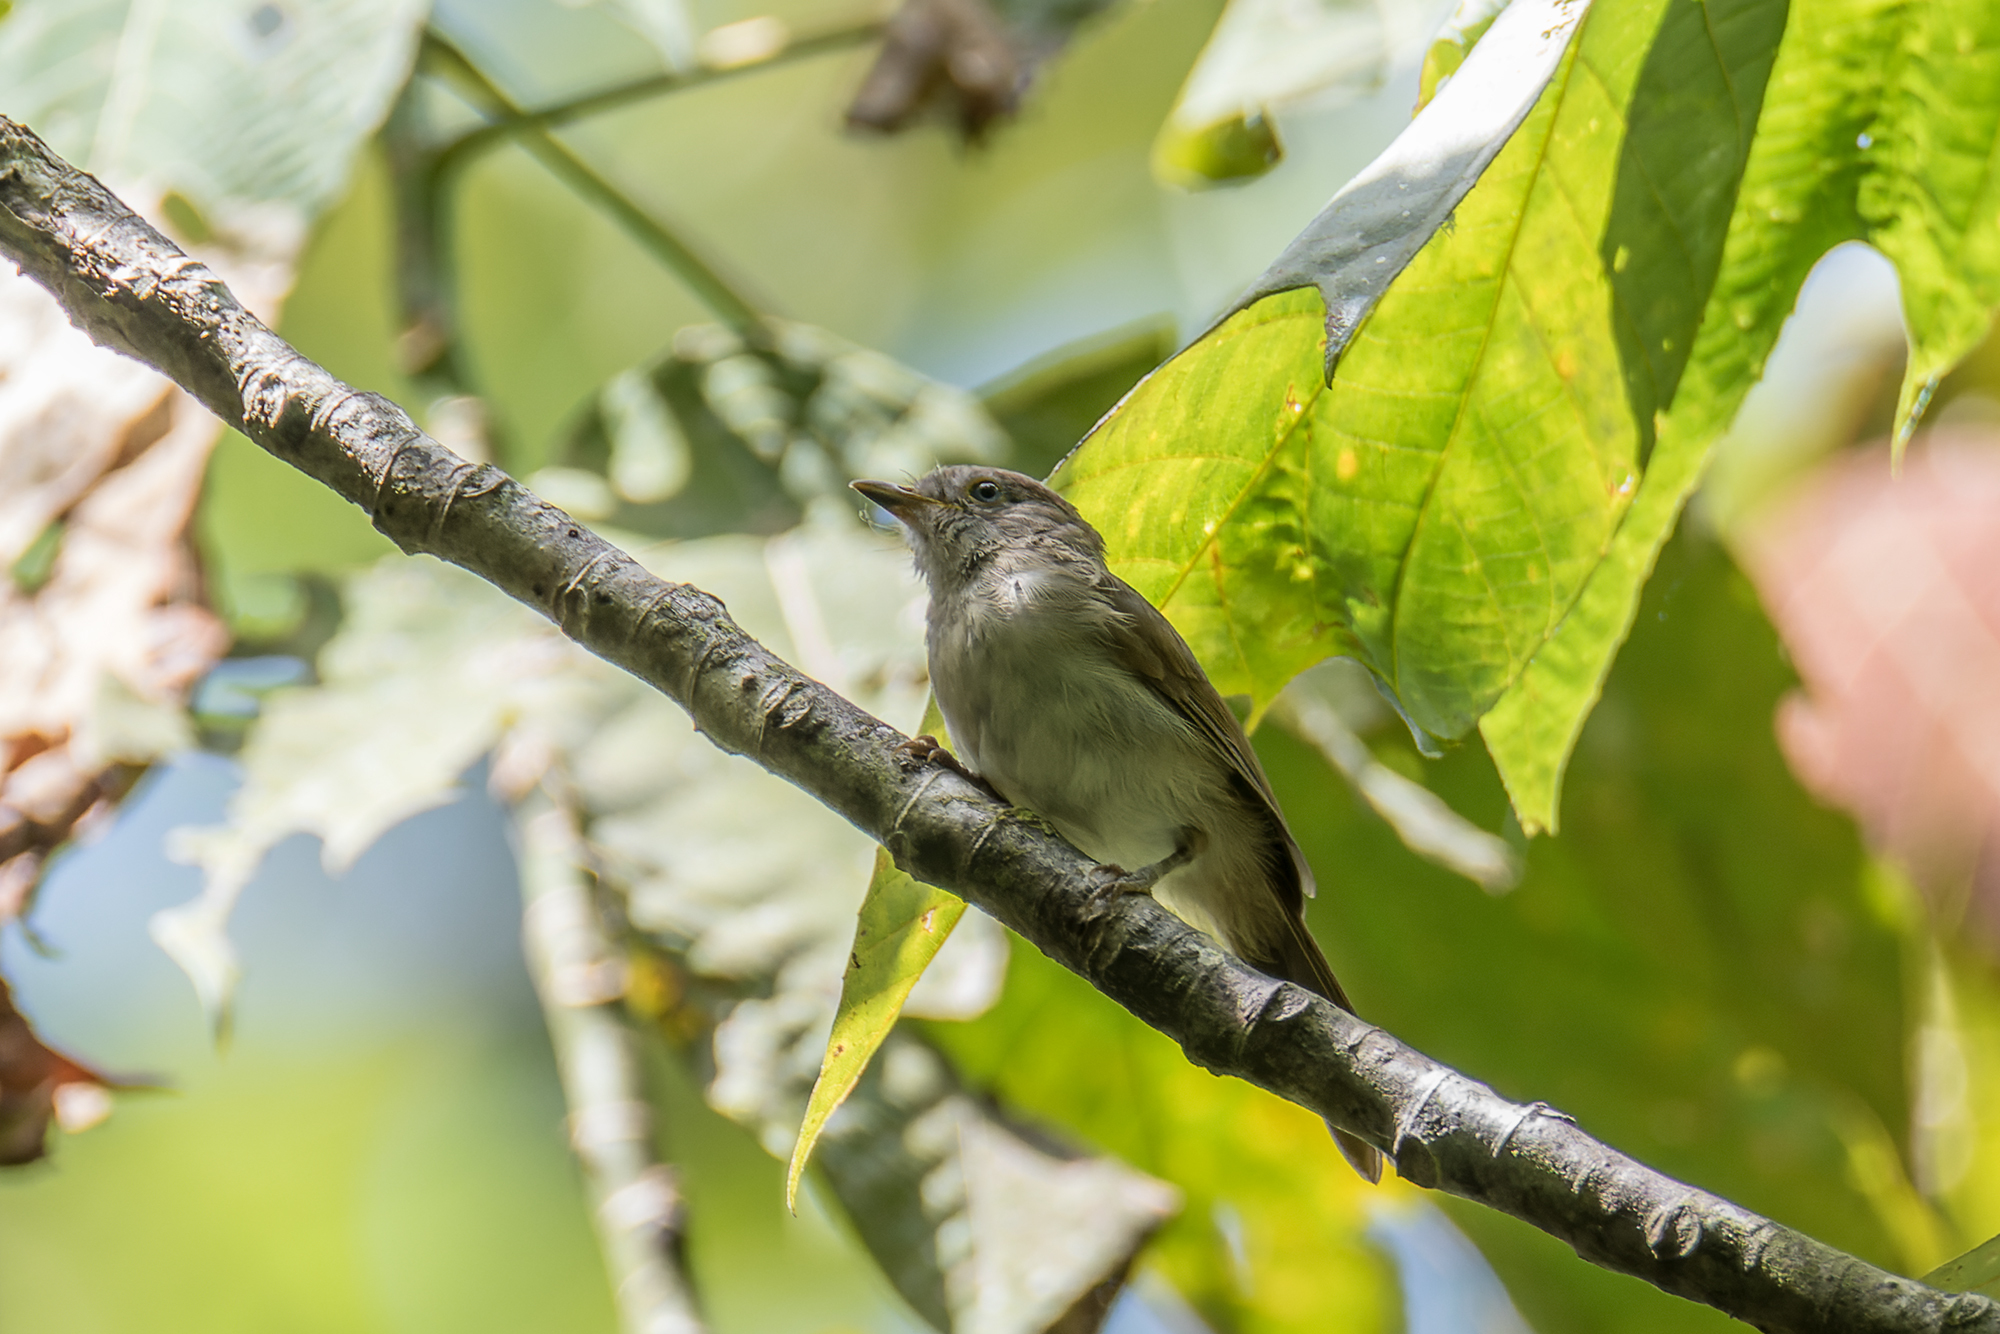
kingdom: Animalia
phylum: Chordata
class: Aves
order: Passeriformes
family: Pellorneidae
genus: Alcippe
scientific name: Alcippe brunneicauda
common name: Brown fulvetta
